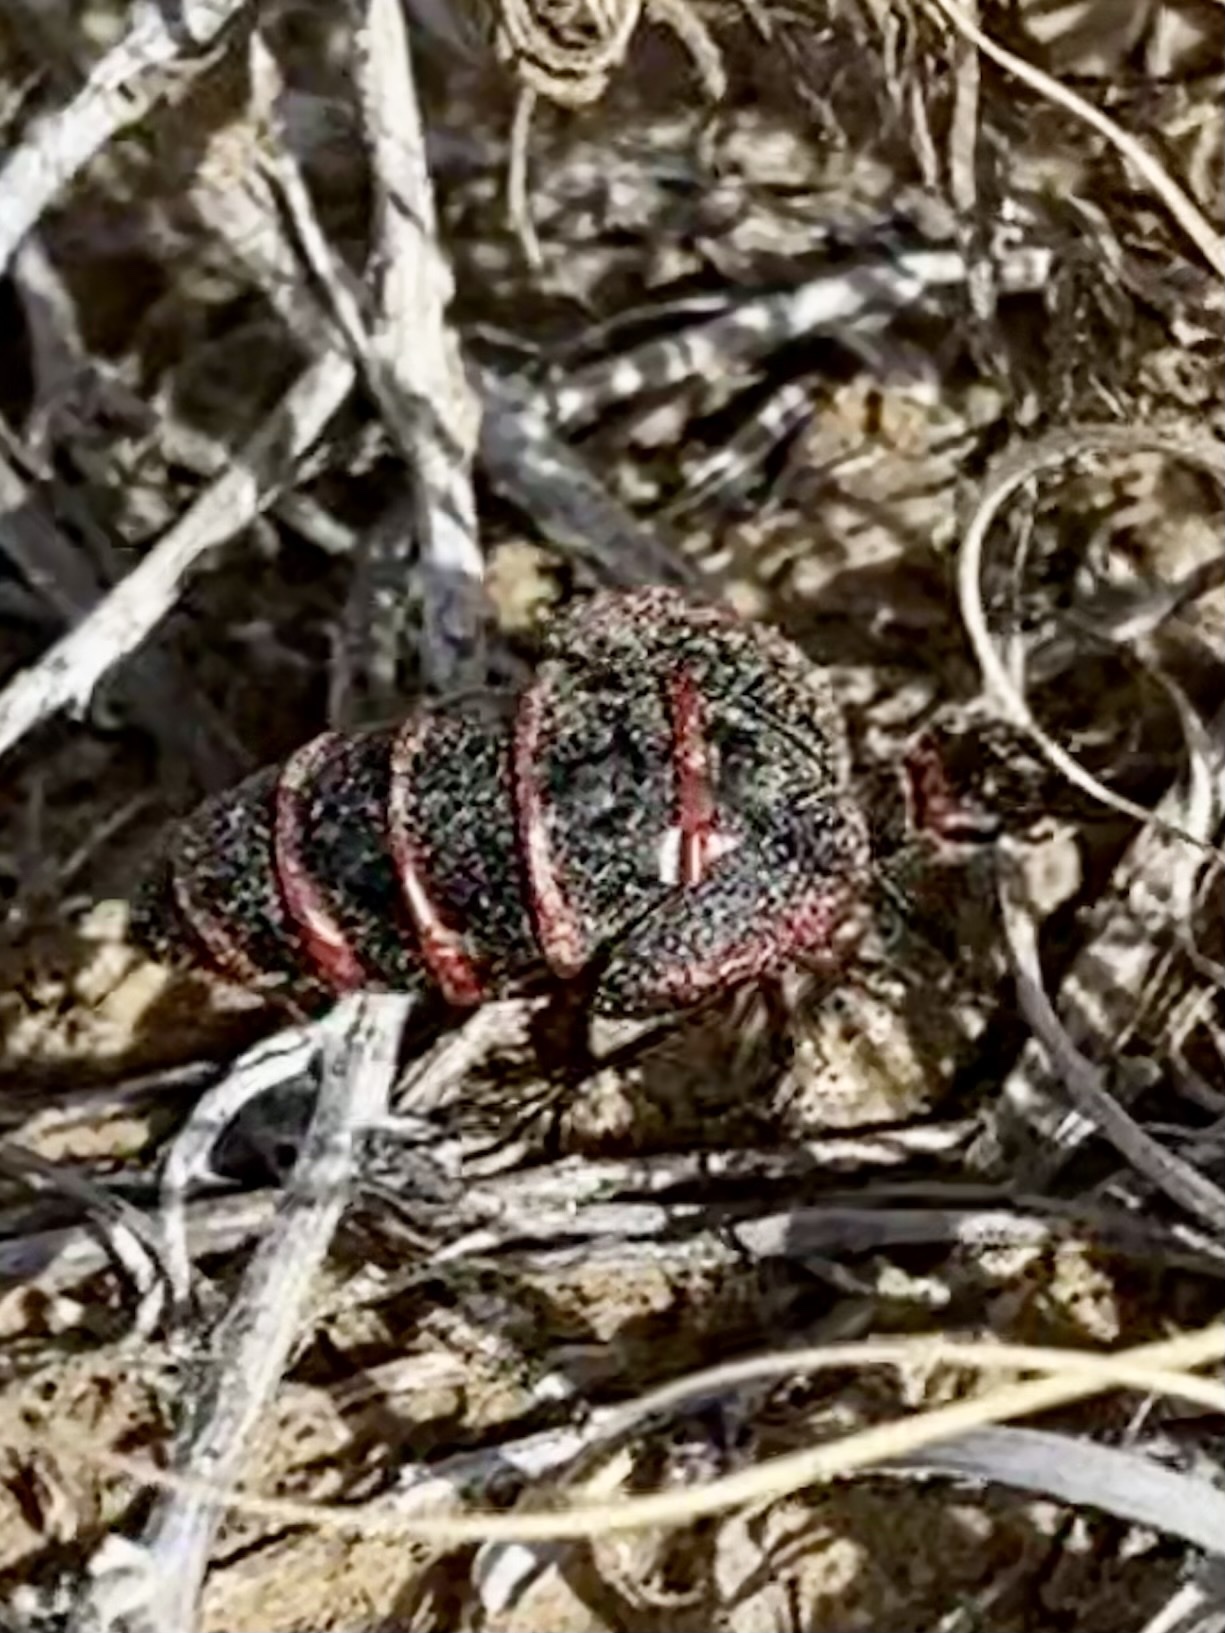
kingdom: Animalia
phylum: Arthropoda
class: Insecta
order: Coleoptera
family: Meloidae
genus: Megetra
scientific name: Megetra vittata
